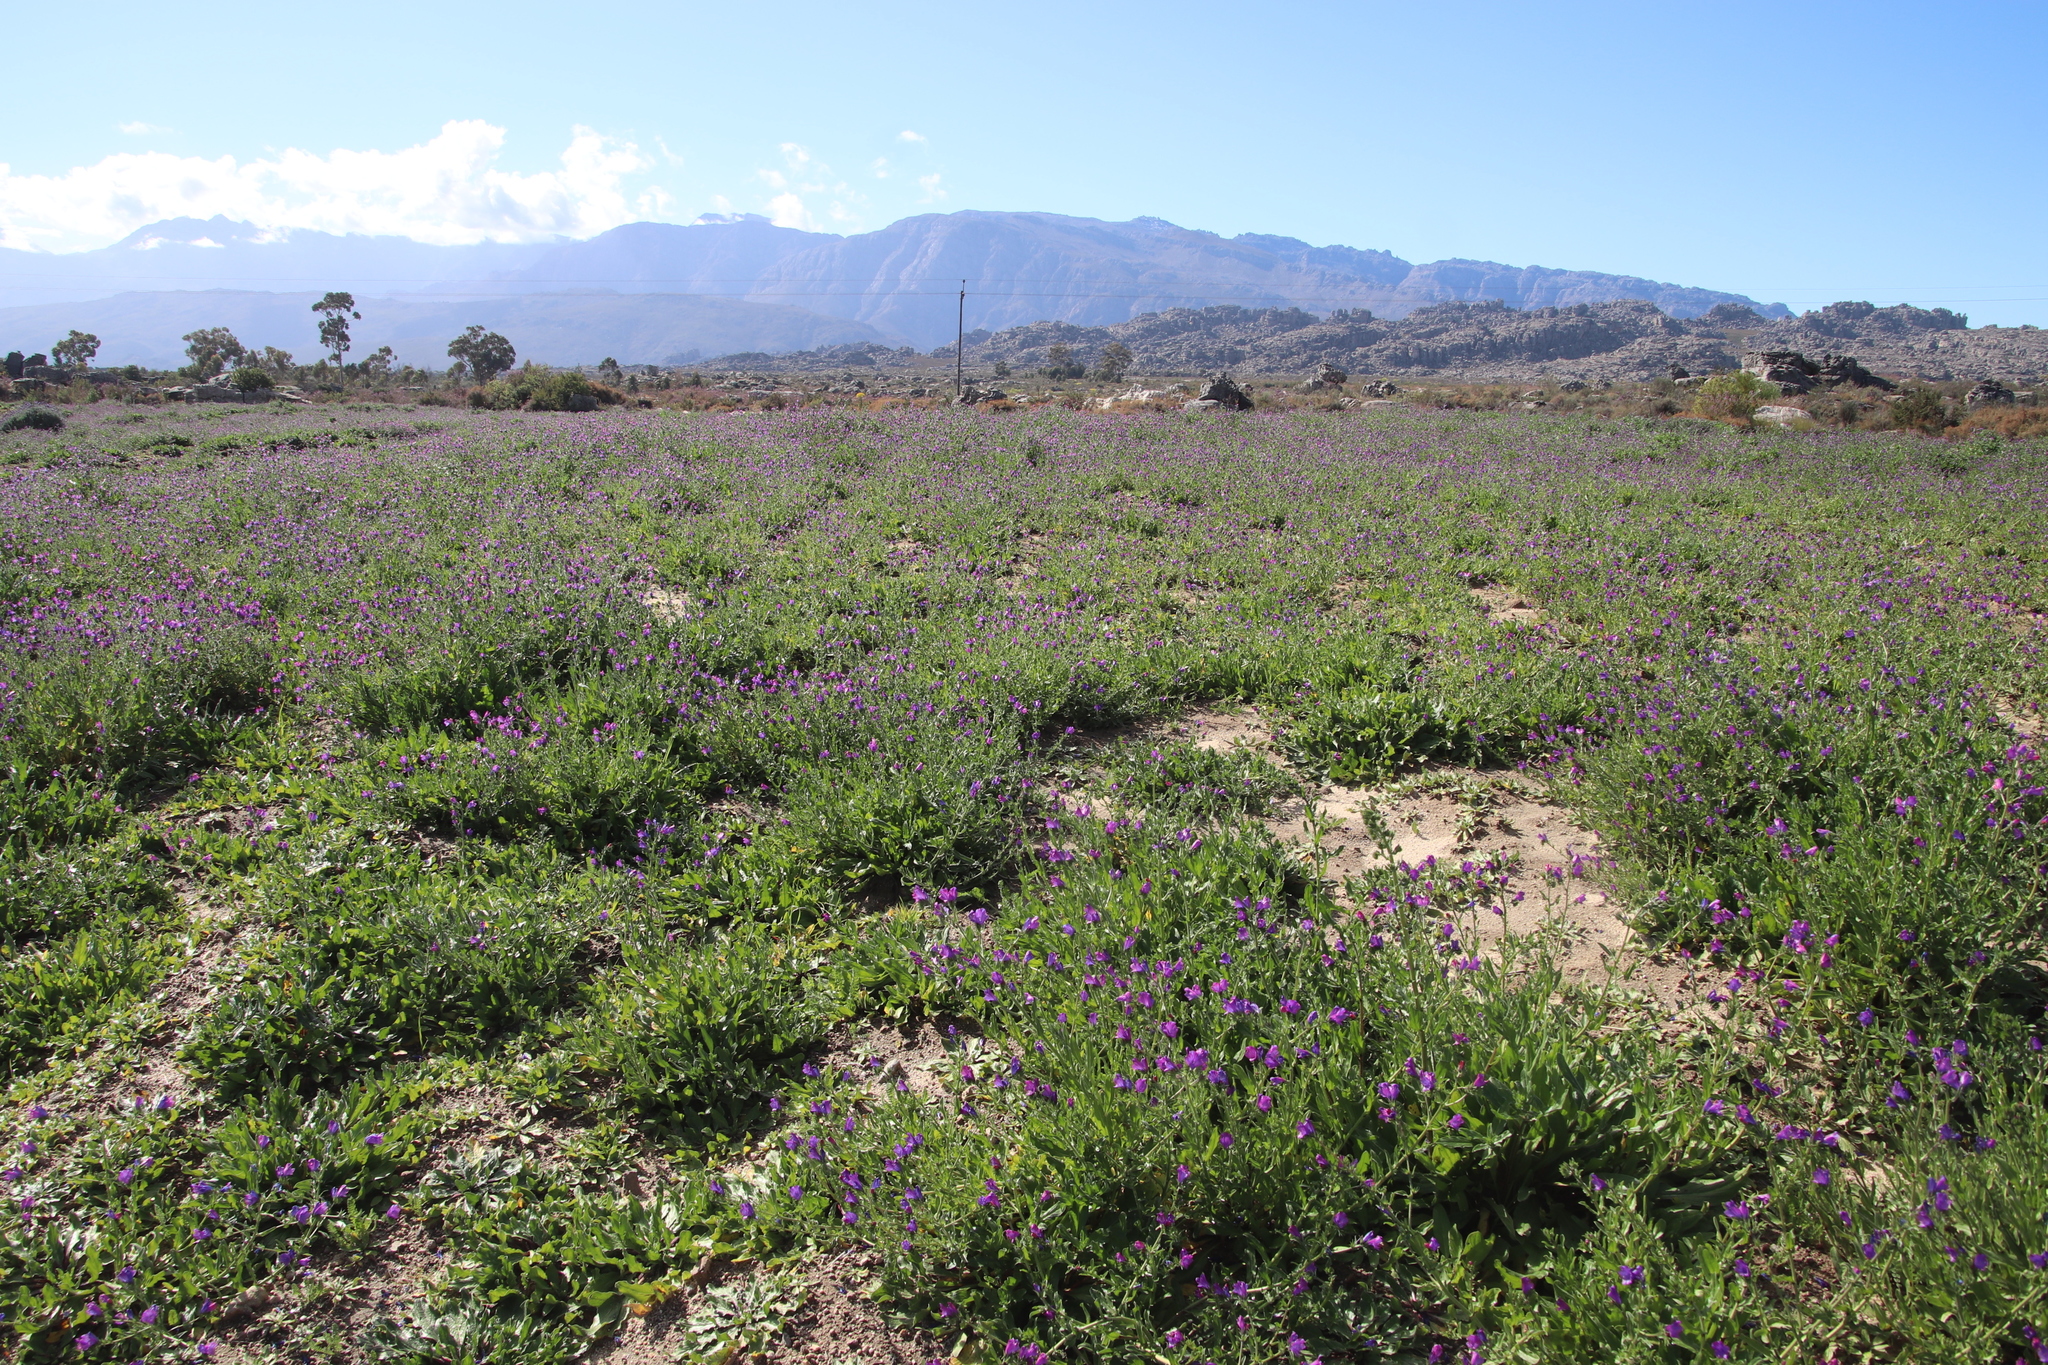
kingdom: Plantae
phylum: Tracheophyta
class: Magnoliopsida
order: Boraginales
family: Boraginaceae
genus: Echium
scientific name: Echium plantagineum
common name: Purple viper's-bugloss
